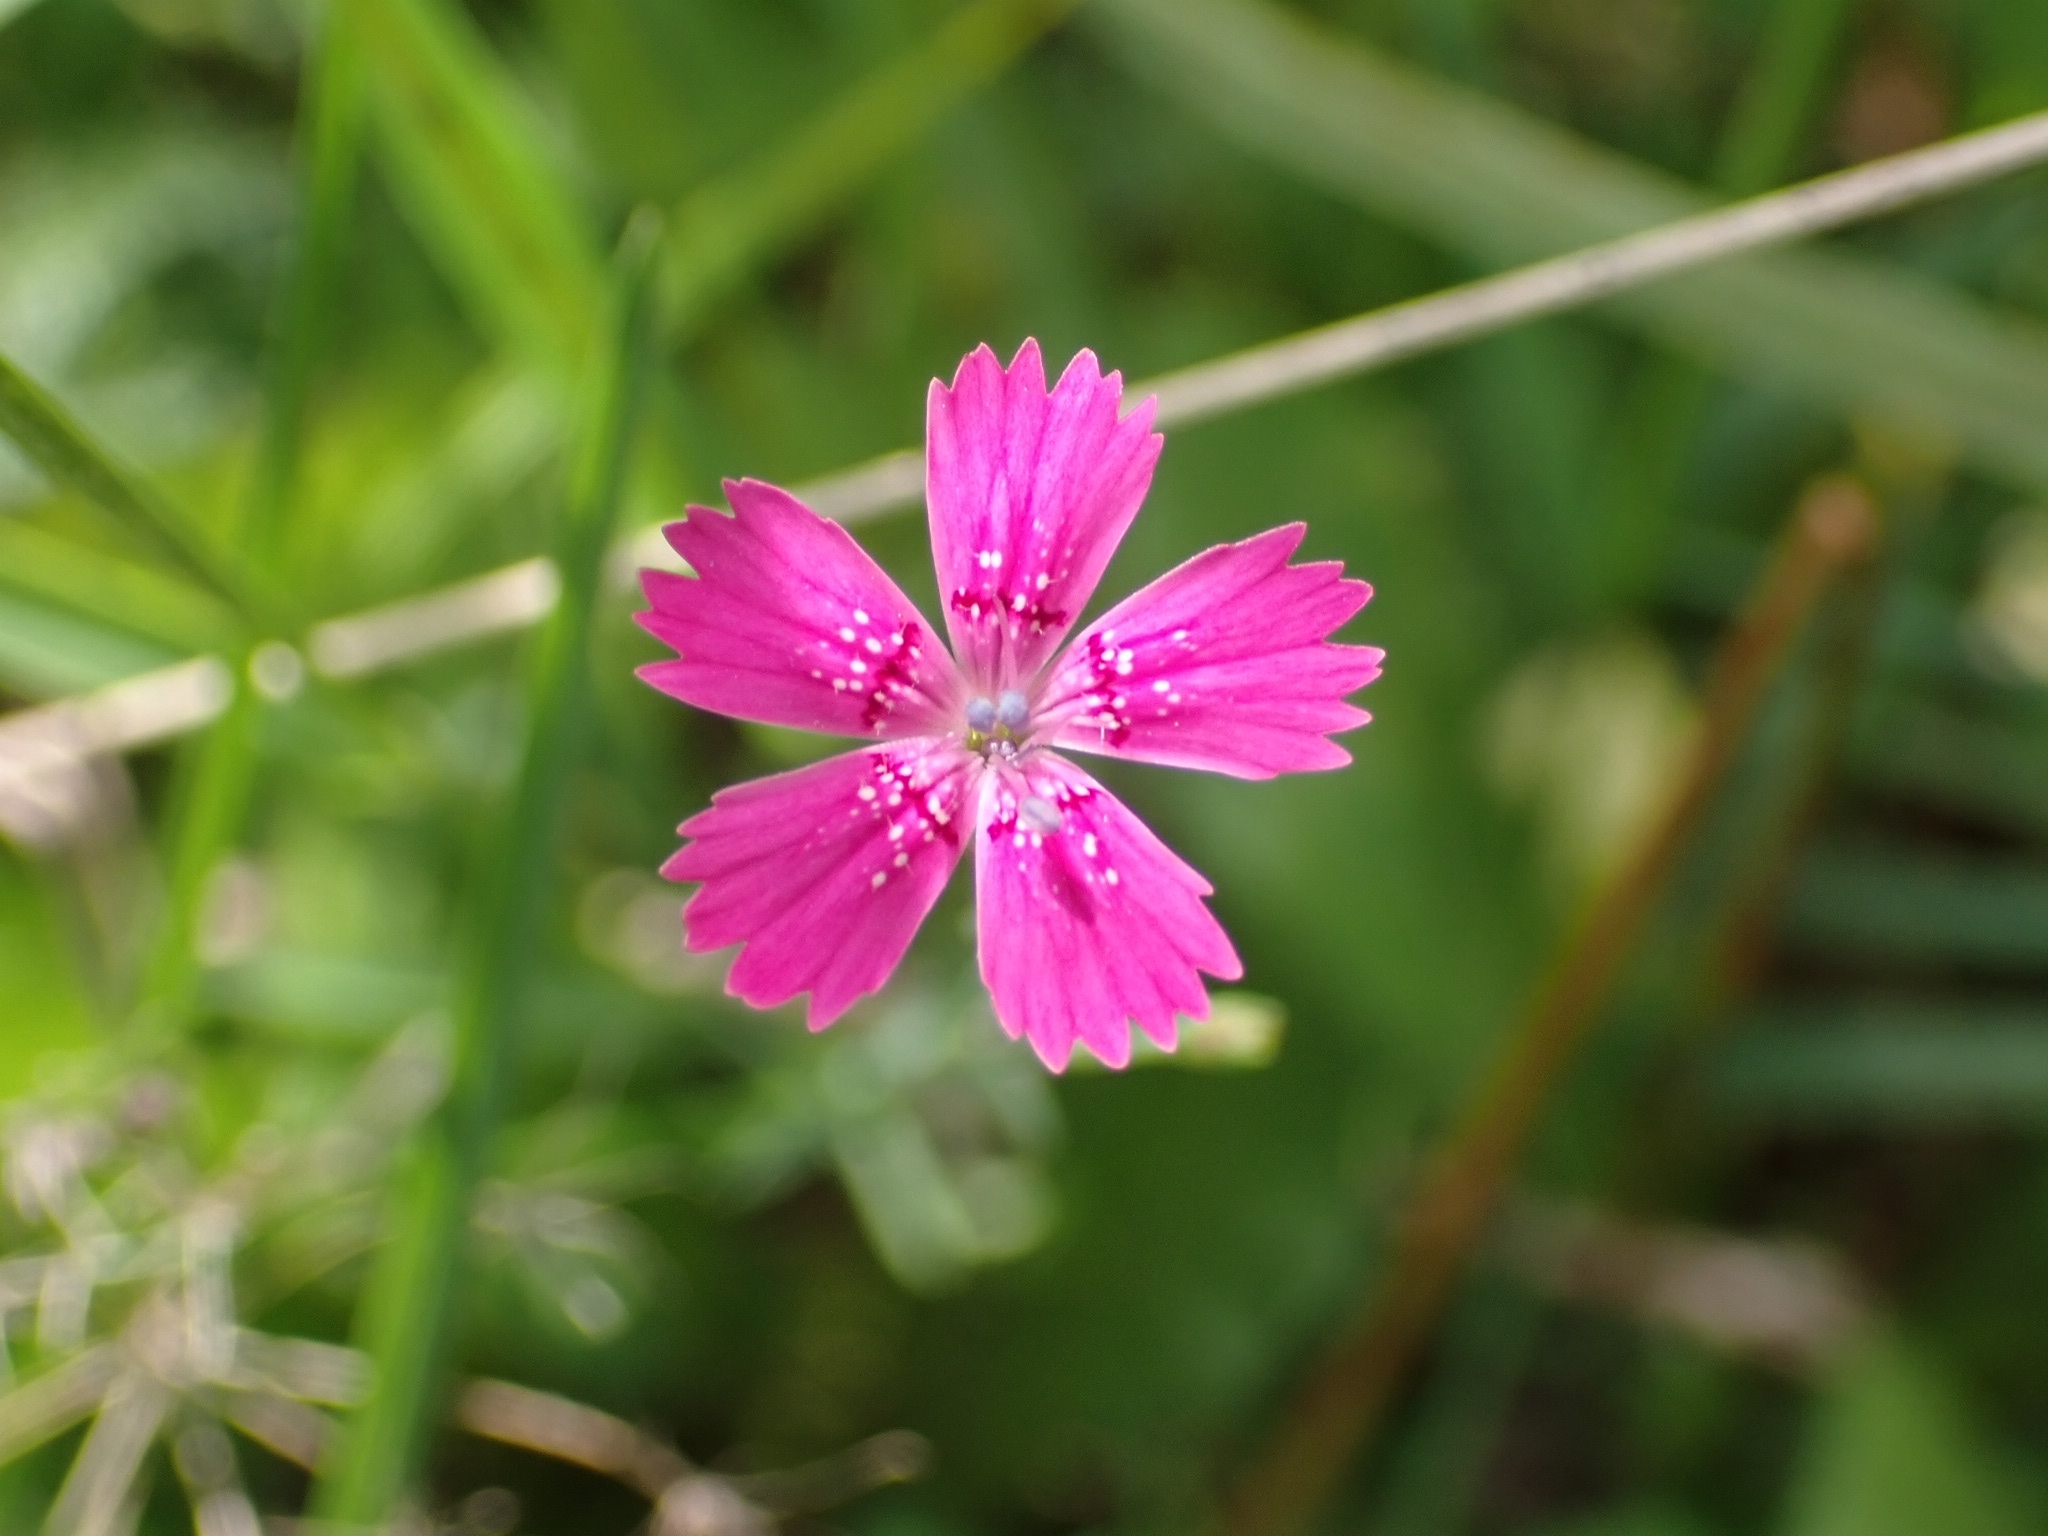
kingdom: Plantae
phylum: Tracheophyta
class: Magnoliopsida
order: Caryophyllales
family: Caryophyllaceae
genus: Dianthus
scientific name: Dianthus deltoides
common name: Maiden pink
